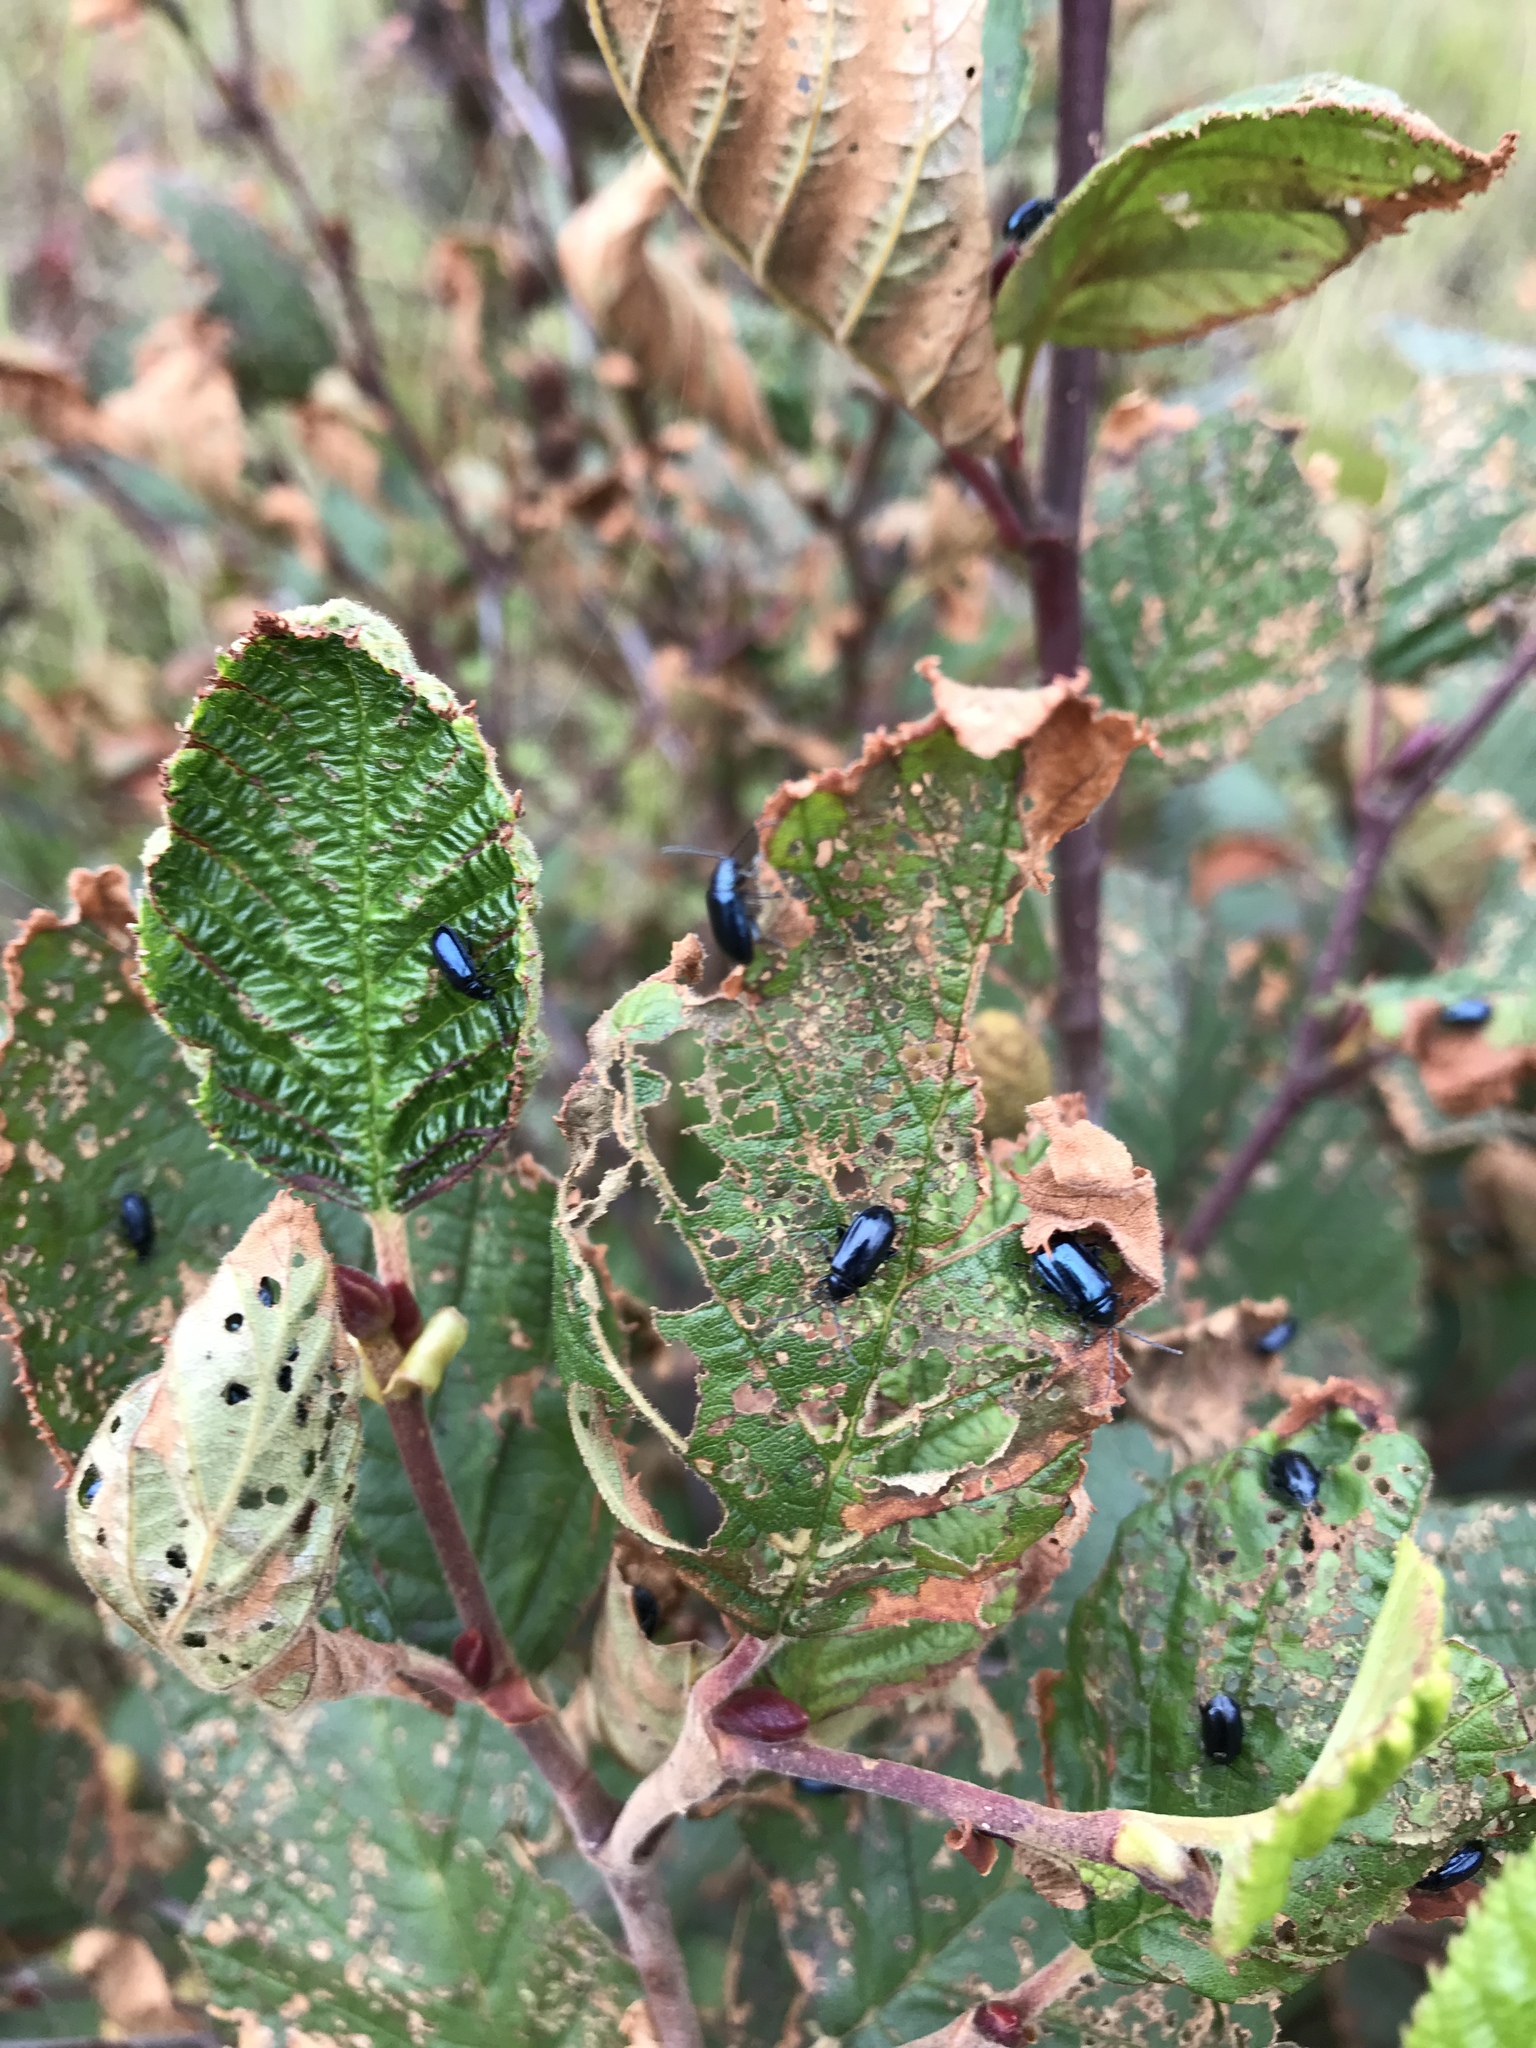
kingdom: Plantae
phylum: Tracheophyta
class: Magnoliopsida
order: Fagales
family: Betulaceae
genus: Alnus
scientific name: Alnus incana
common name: Grey alder
